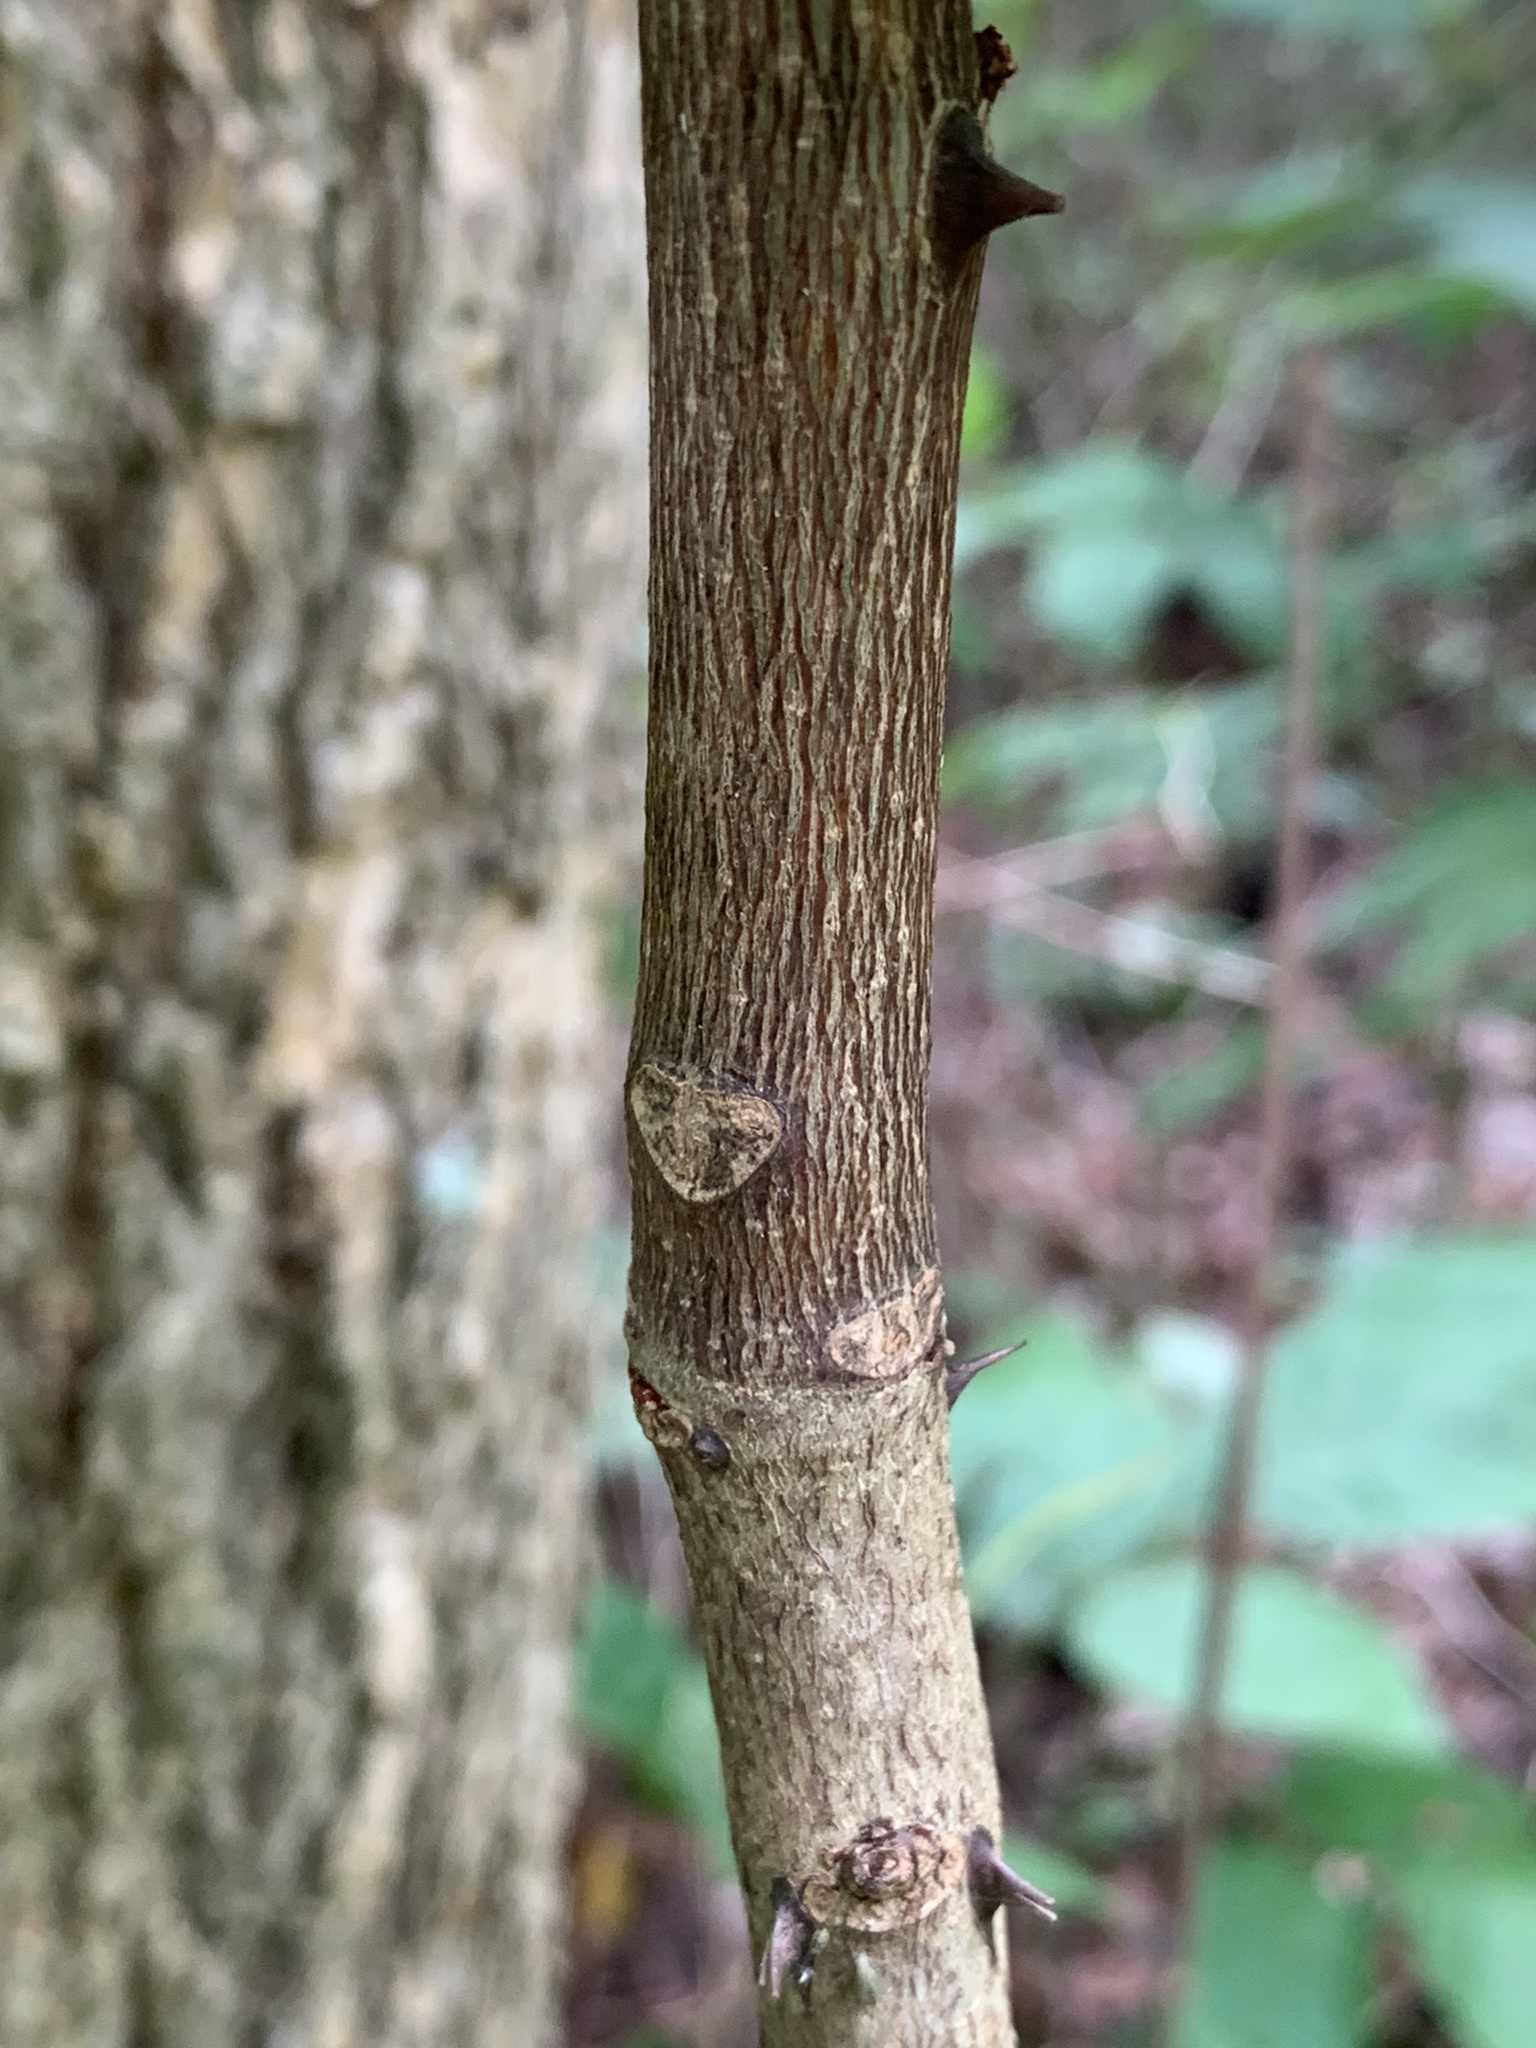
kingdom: Plantae
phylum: Tracheophyta
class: Magnoliopsida
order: Sapindales
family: Rutaceae
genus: Zanthoxylum
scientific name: Zanthoxylum americanum
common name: Northern prickly-ash
